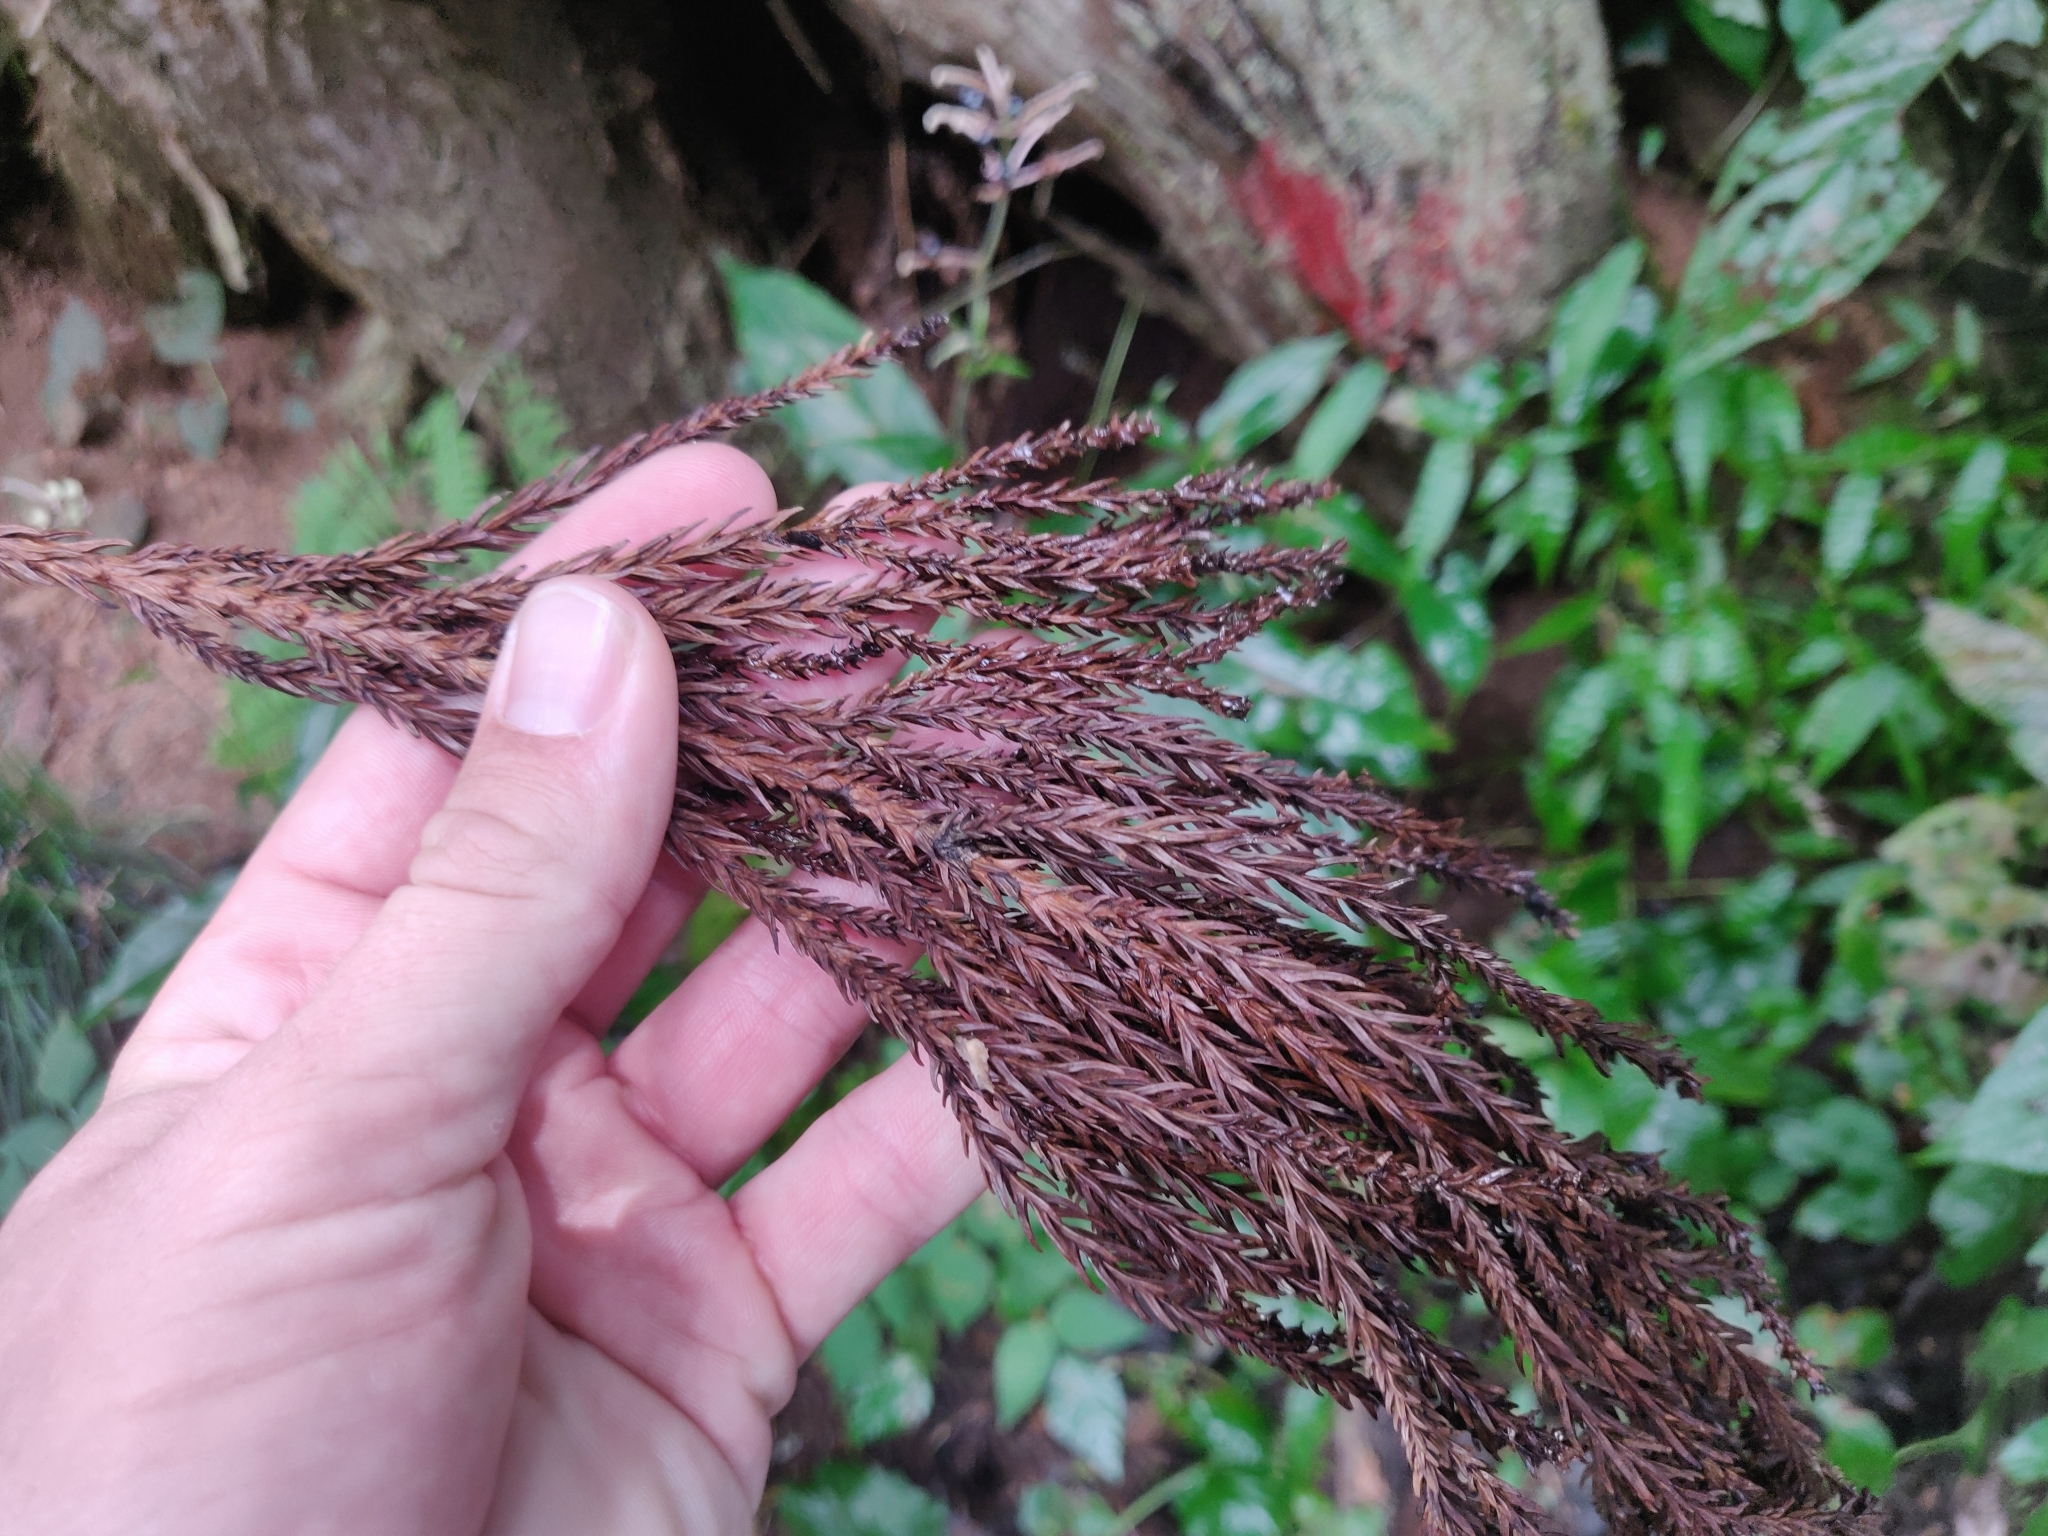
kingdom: Plantae
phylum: Tracheophyta
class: Pinopsida
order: Pinales
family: Cupressaceae
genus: Cryptomeria
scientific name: Cryptomeria japonica
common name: Japanese cedar
